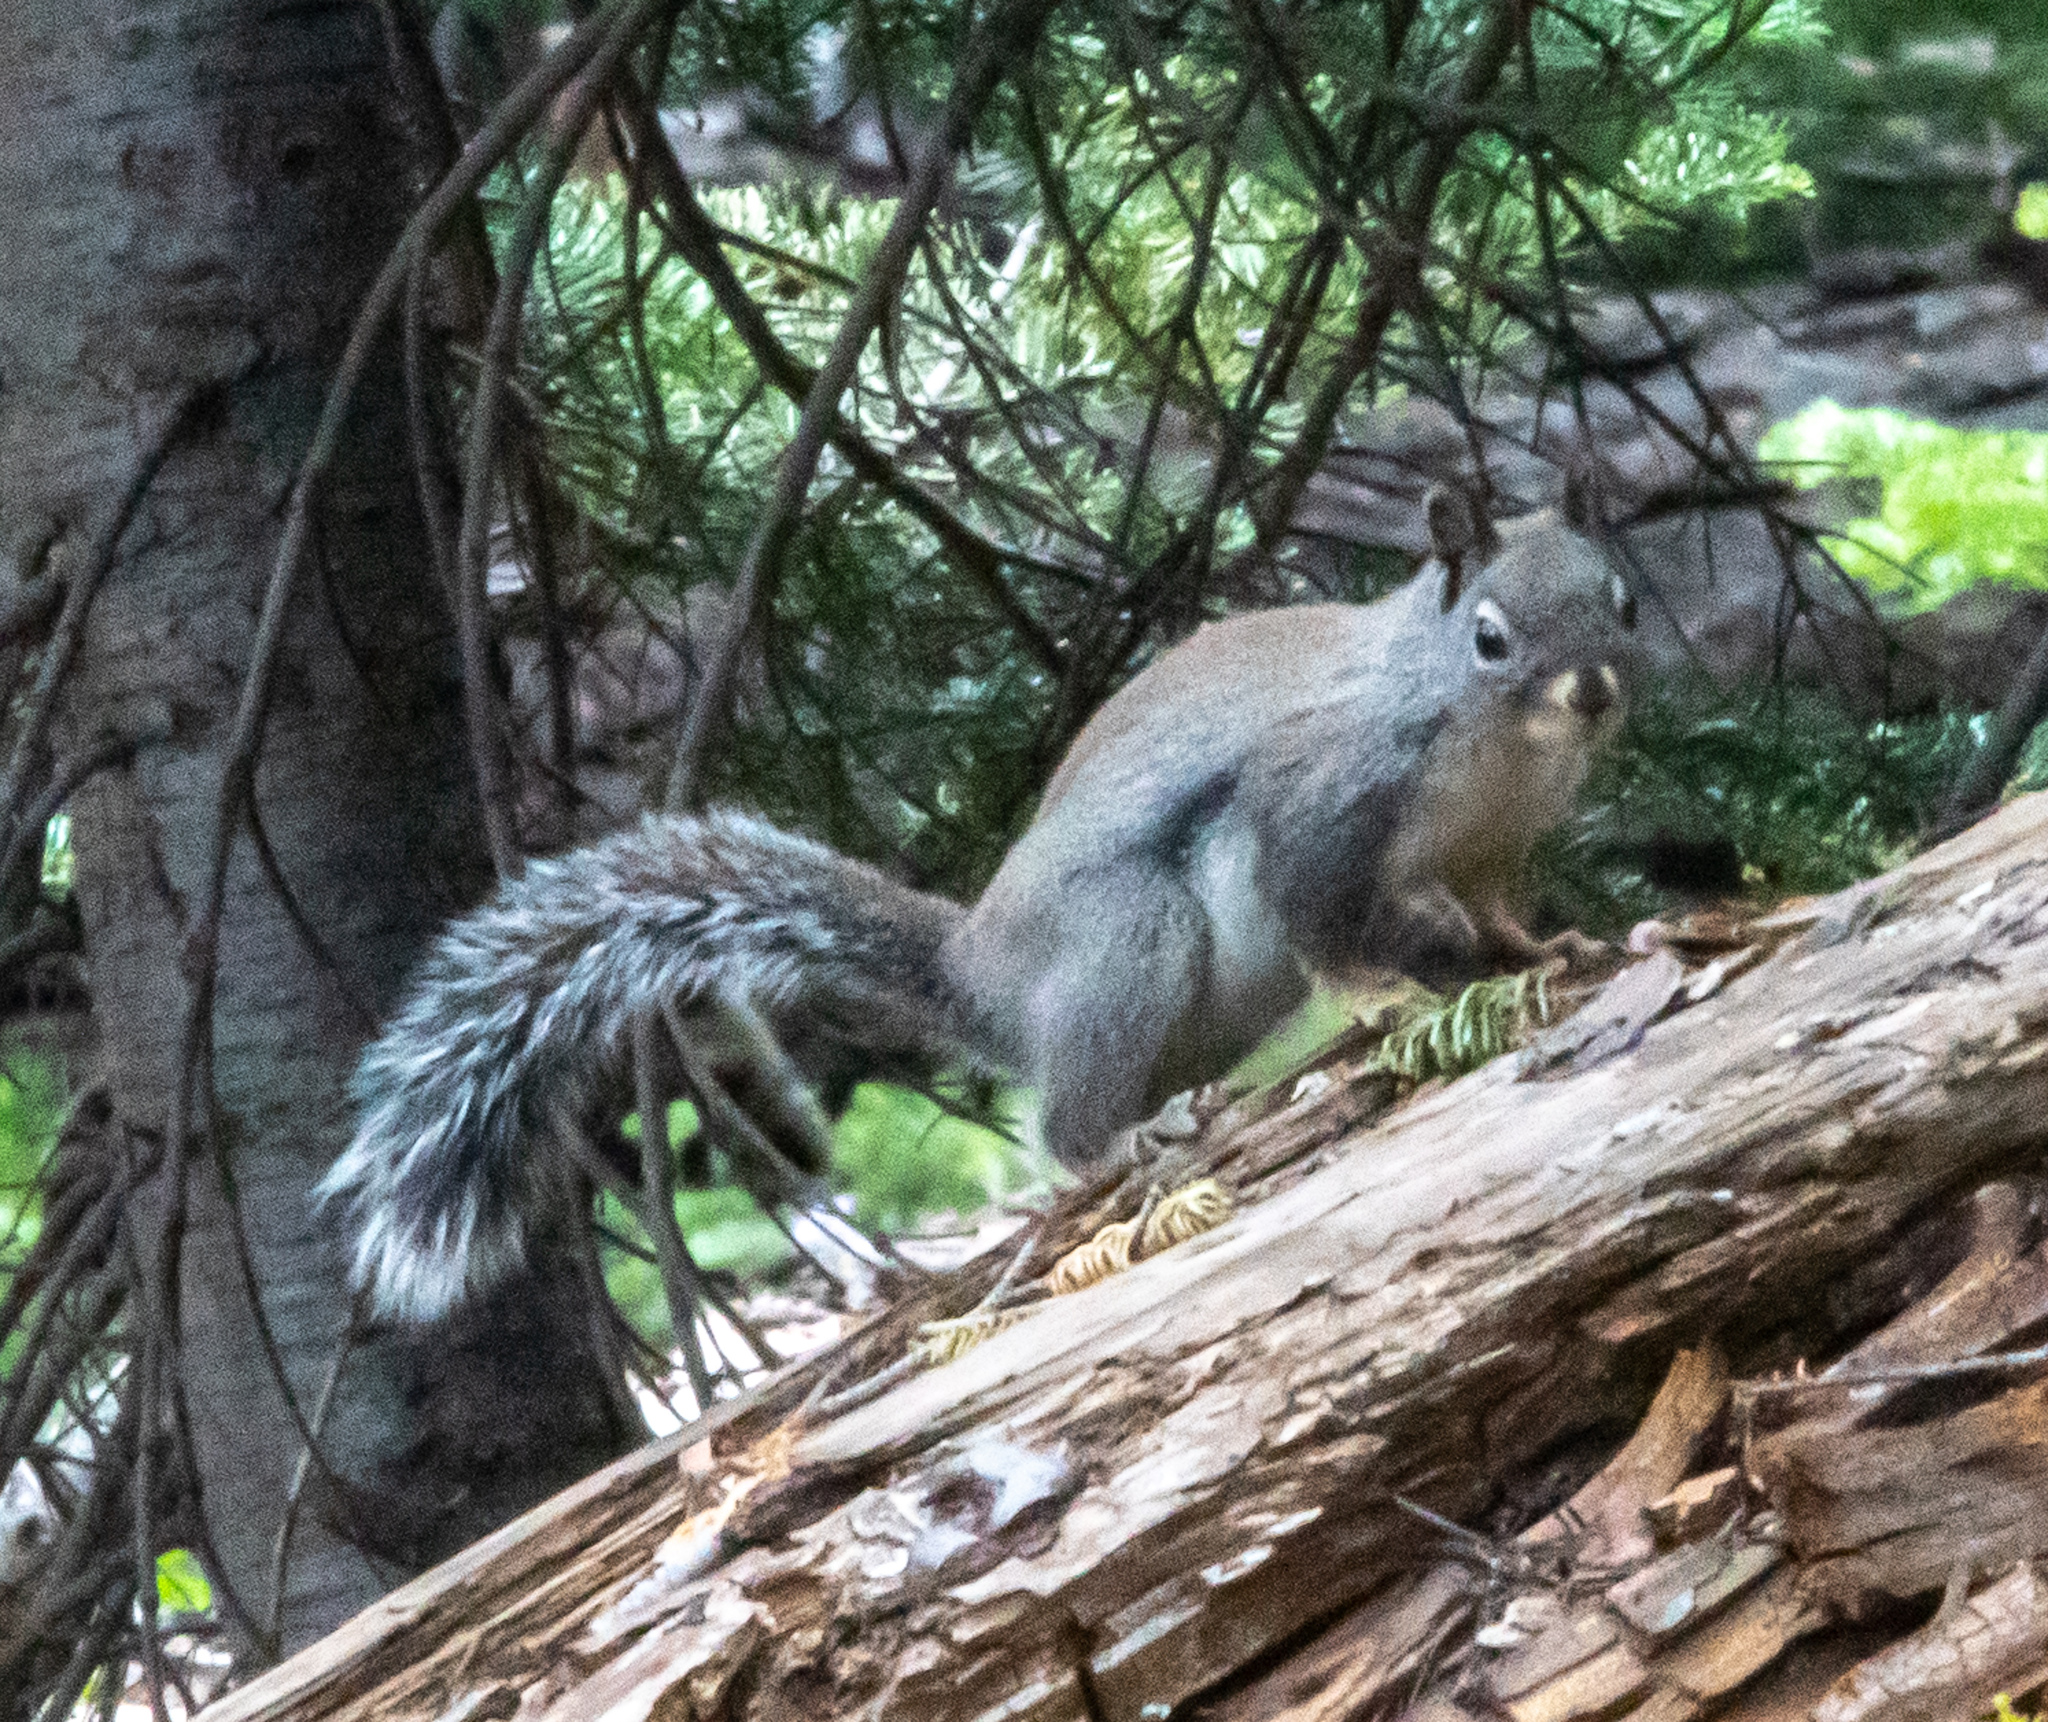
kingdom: Animalia
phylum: Chordata
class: Mammalia
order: Rodentia
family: Sciuridae
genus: Sciurus
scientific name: Sciurus griseus
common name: Western gray squirrel
